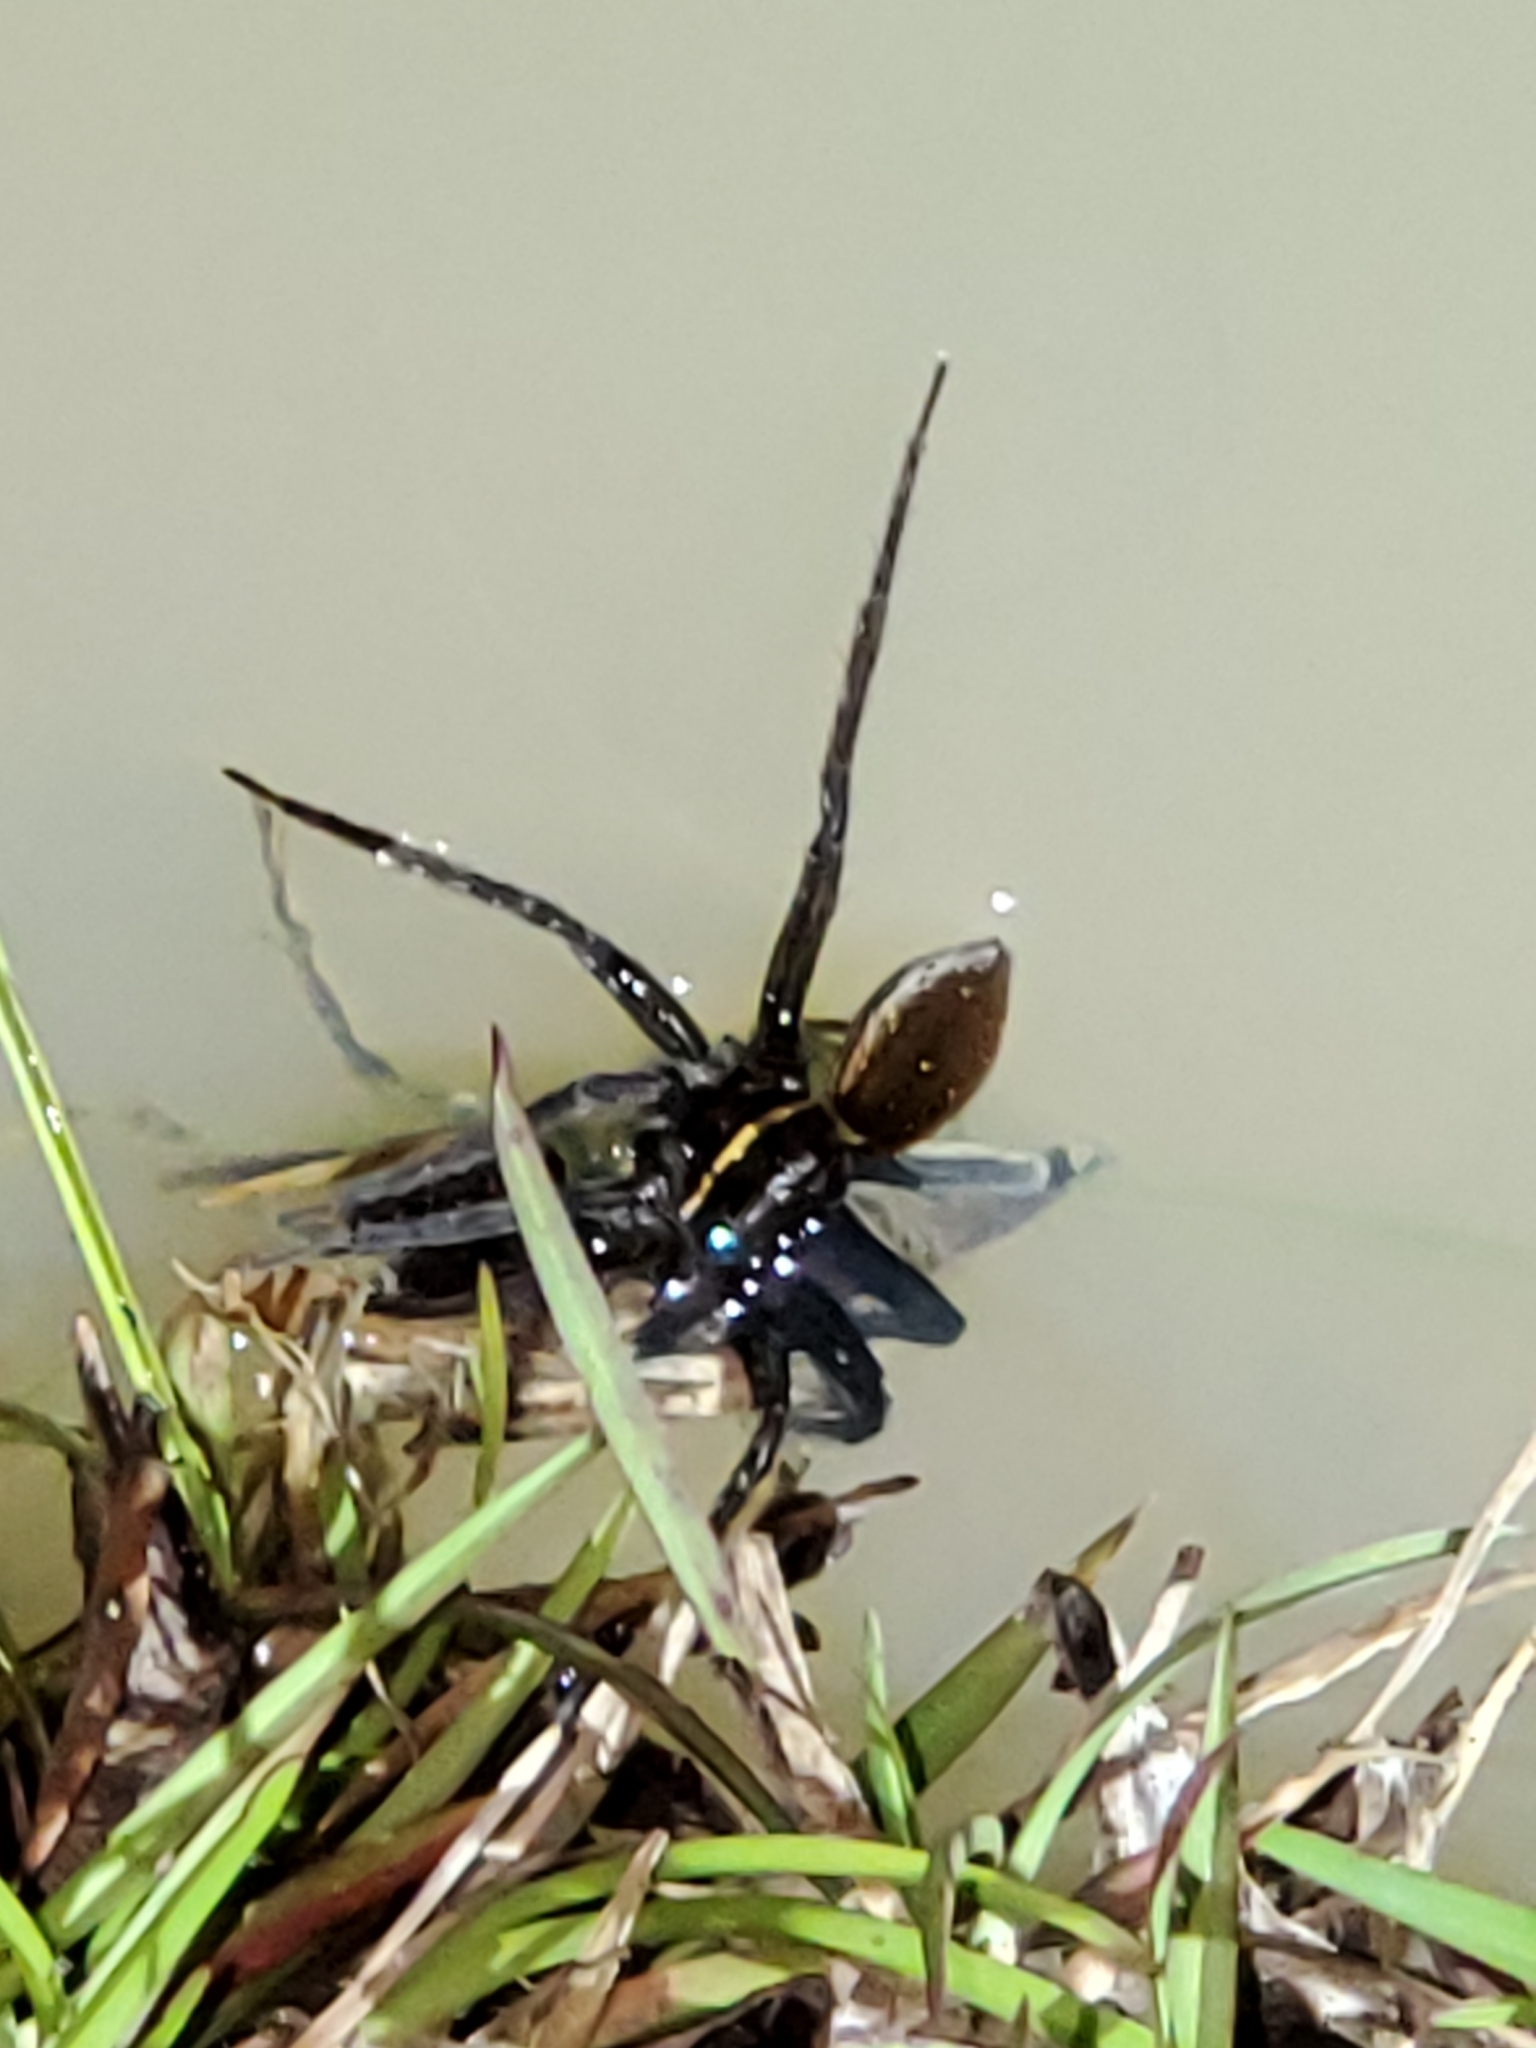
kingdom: Animalia
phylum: Arthropoda
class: Arachnida
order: Araneae
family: Pisauridae
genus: Dolomedes
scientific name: Dolomedes triton
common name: Six-spotted fishing spider
